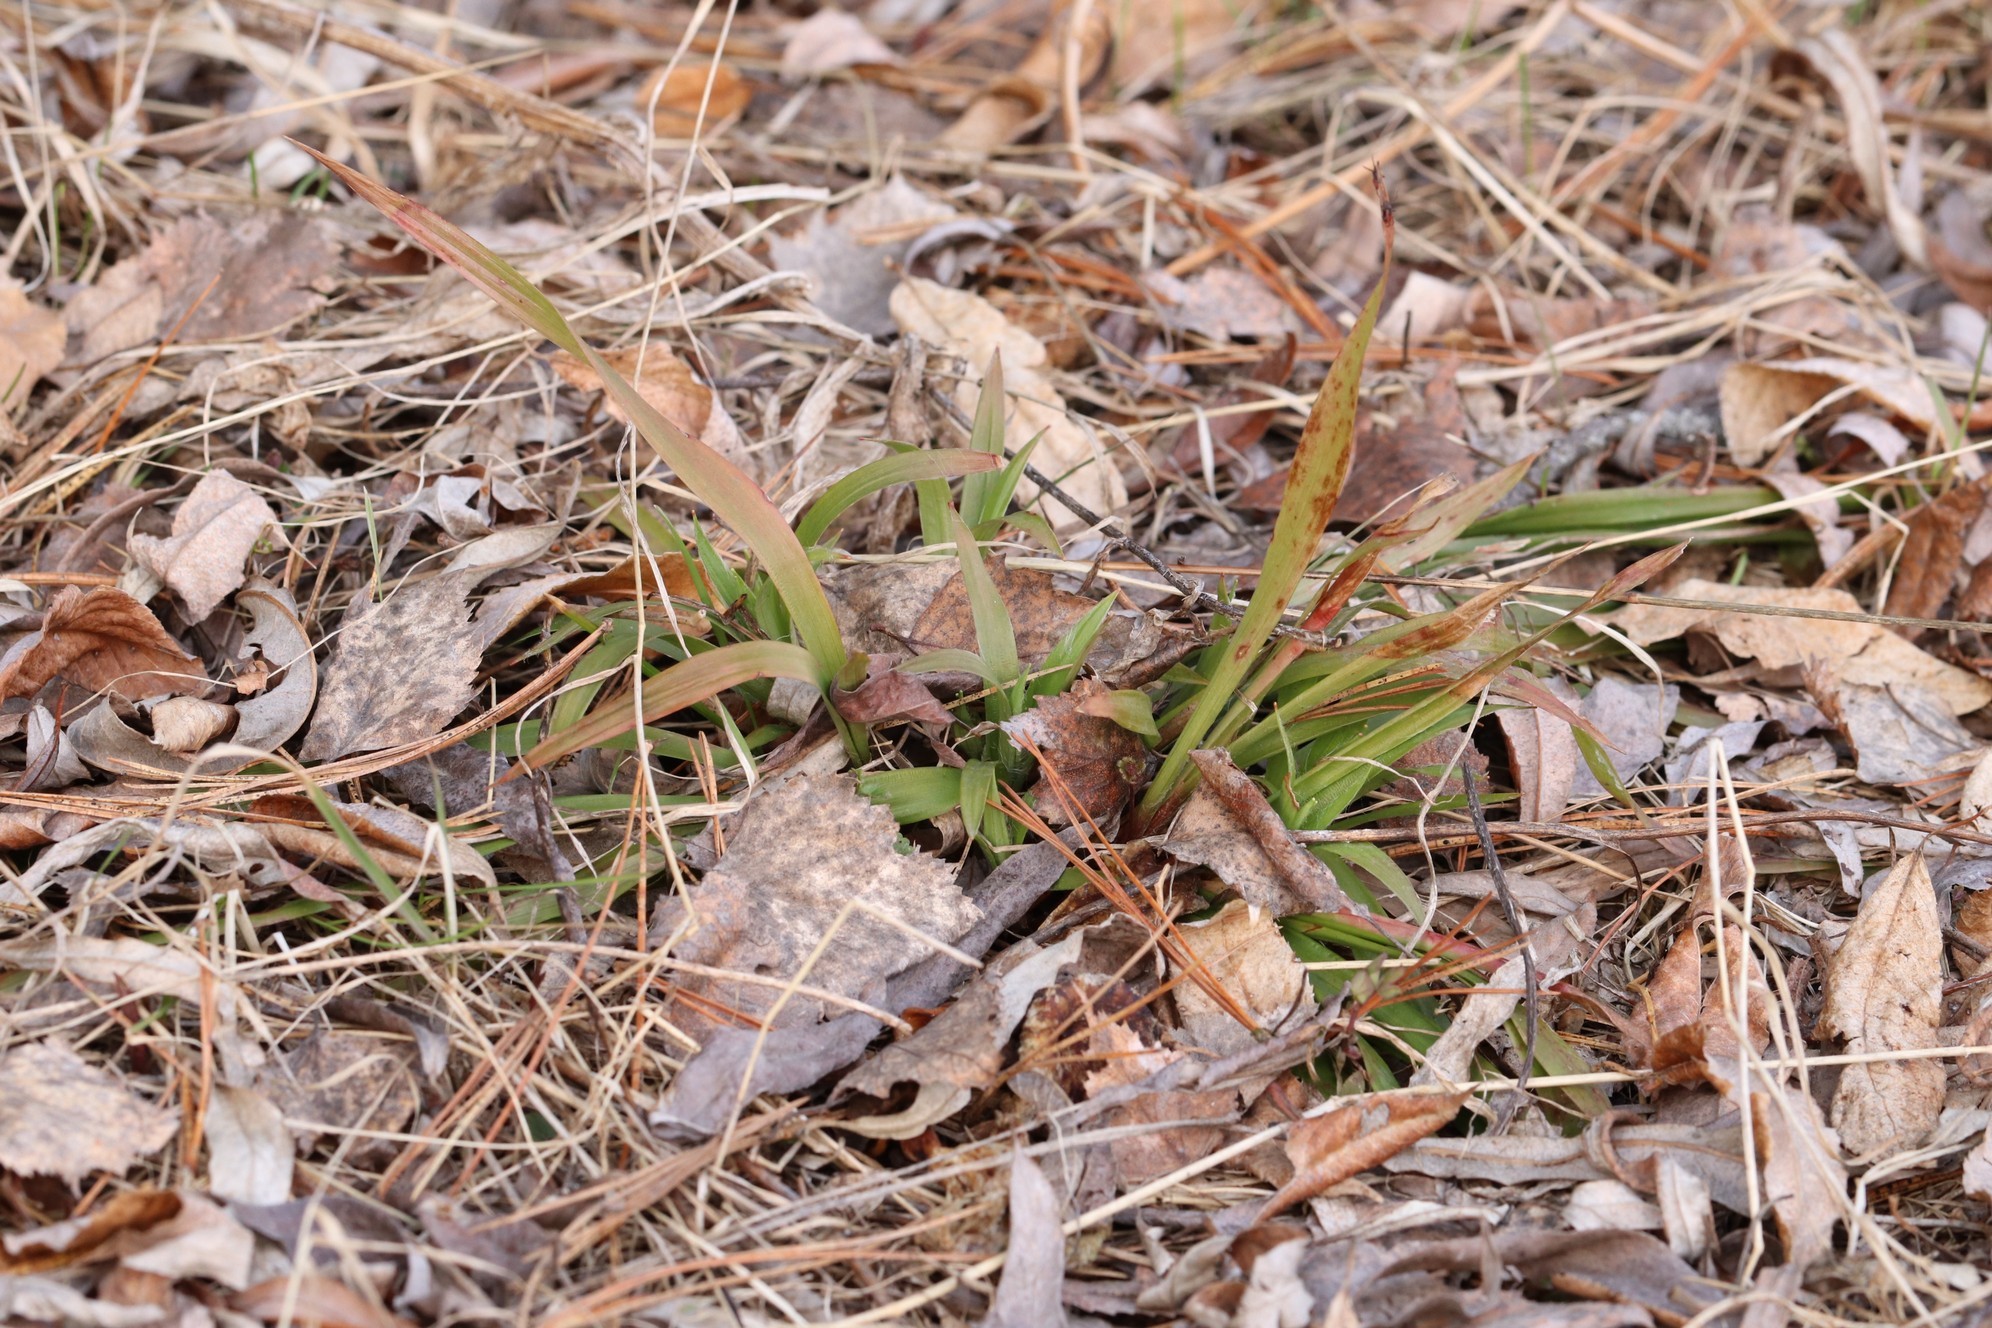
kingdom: Plantae
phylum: Tracheophyta
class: Liliopsida
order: Poales
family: Juncaceae
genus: Luzula
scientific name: Luzula pilosa
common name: Hairy wood-rush
